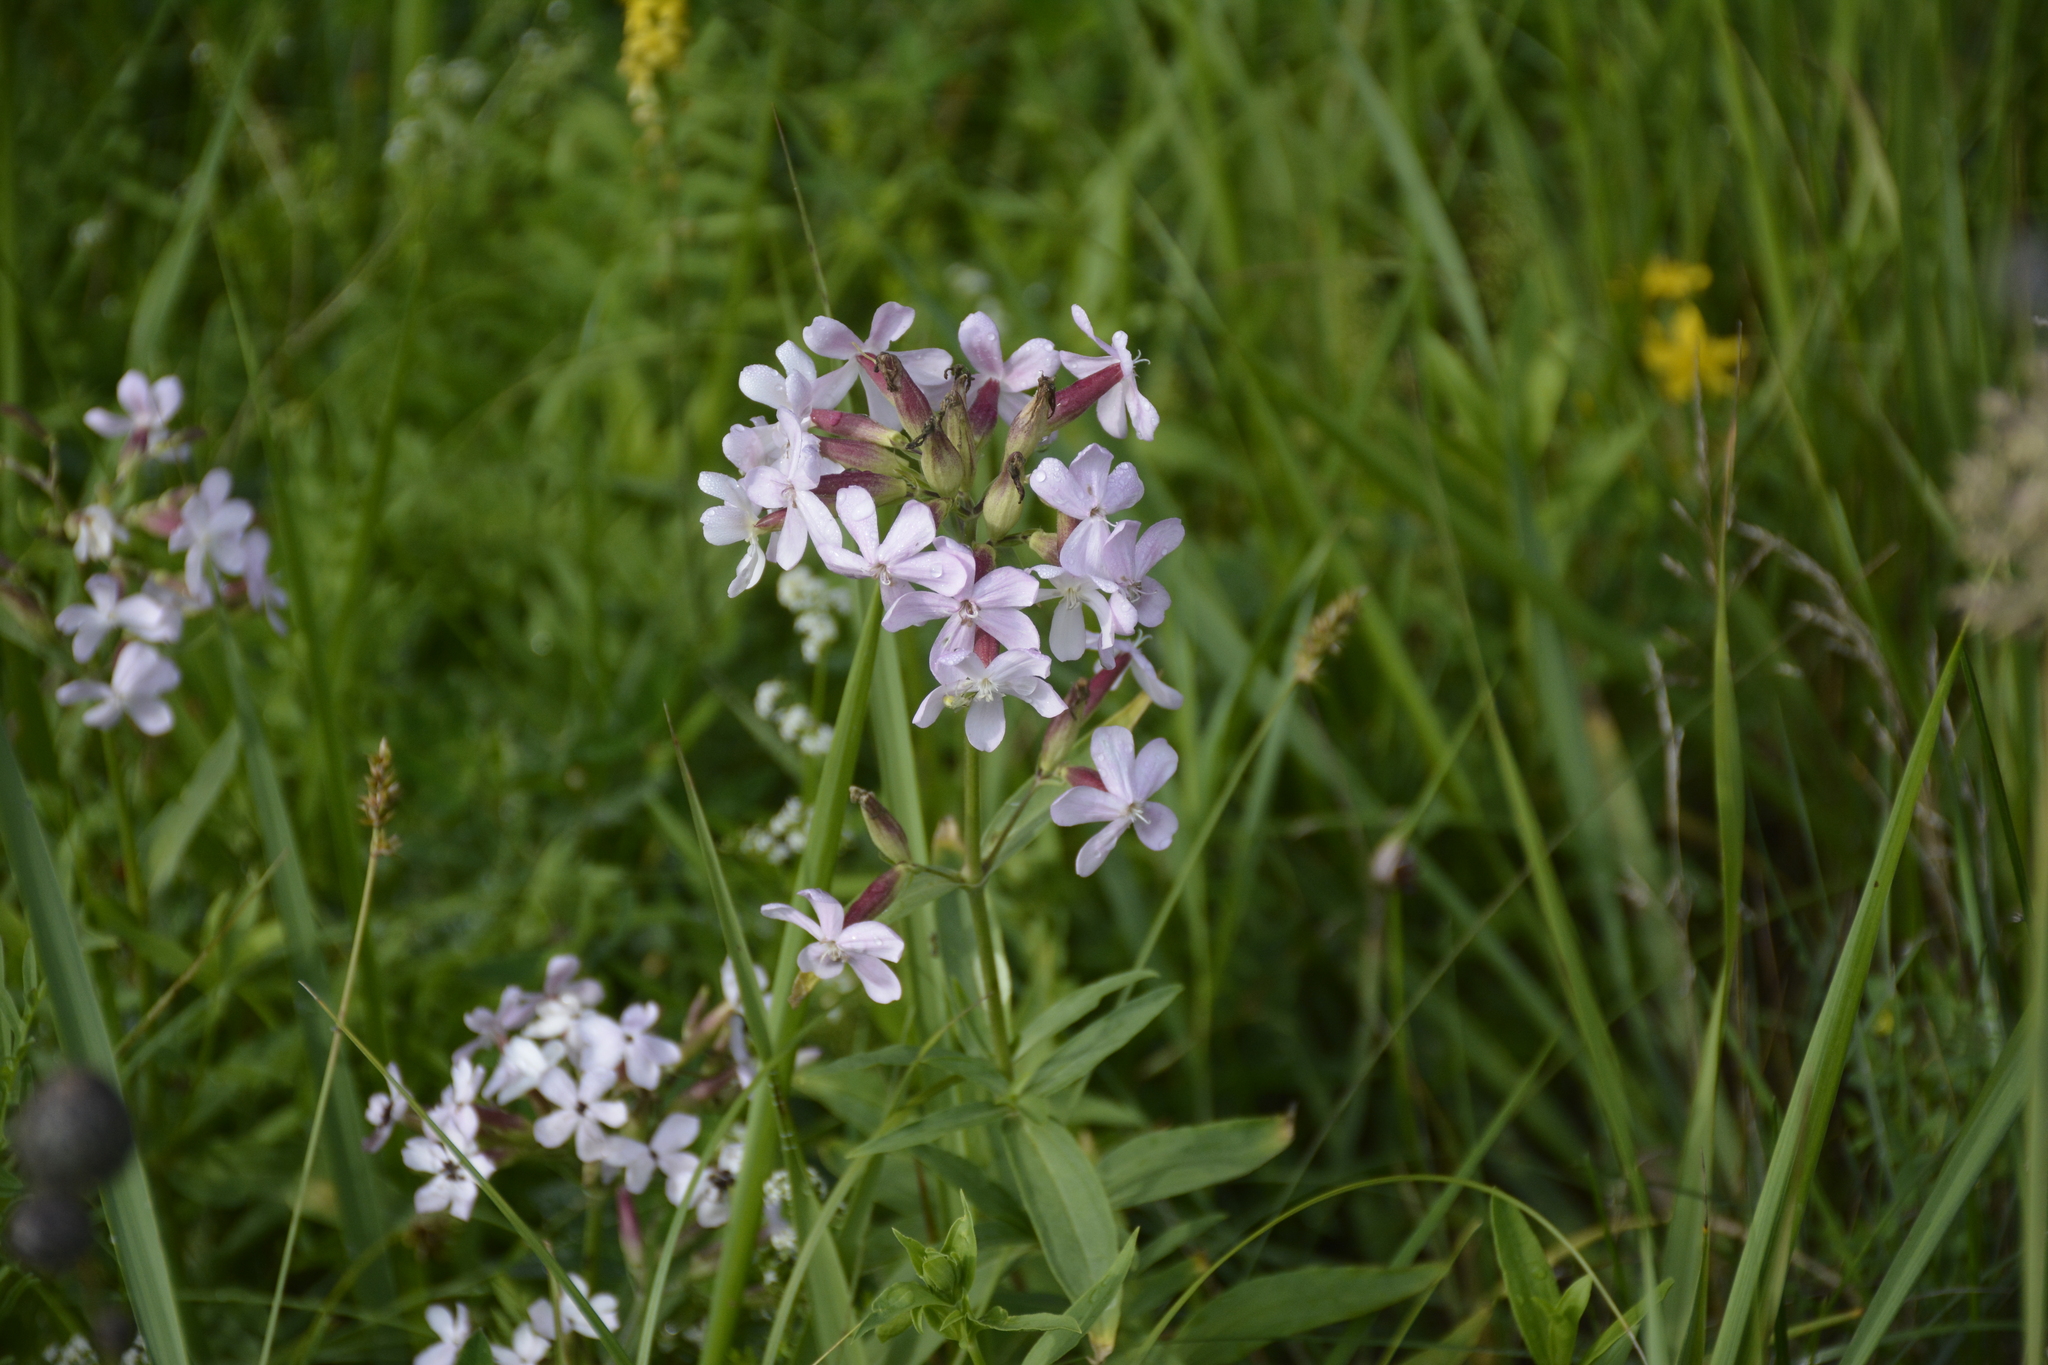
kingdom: Plantae
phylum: Tracheophyta
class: Magnoliopsida
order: Caryophyllales
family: Caryophyllaceae
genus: Saponaria
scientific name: Saponaria officinalis
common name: Soapwort
